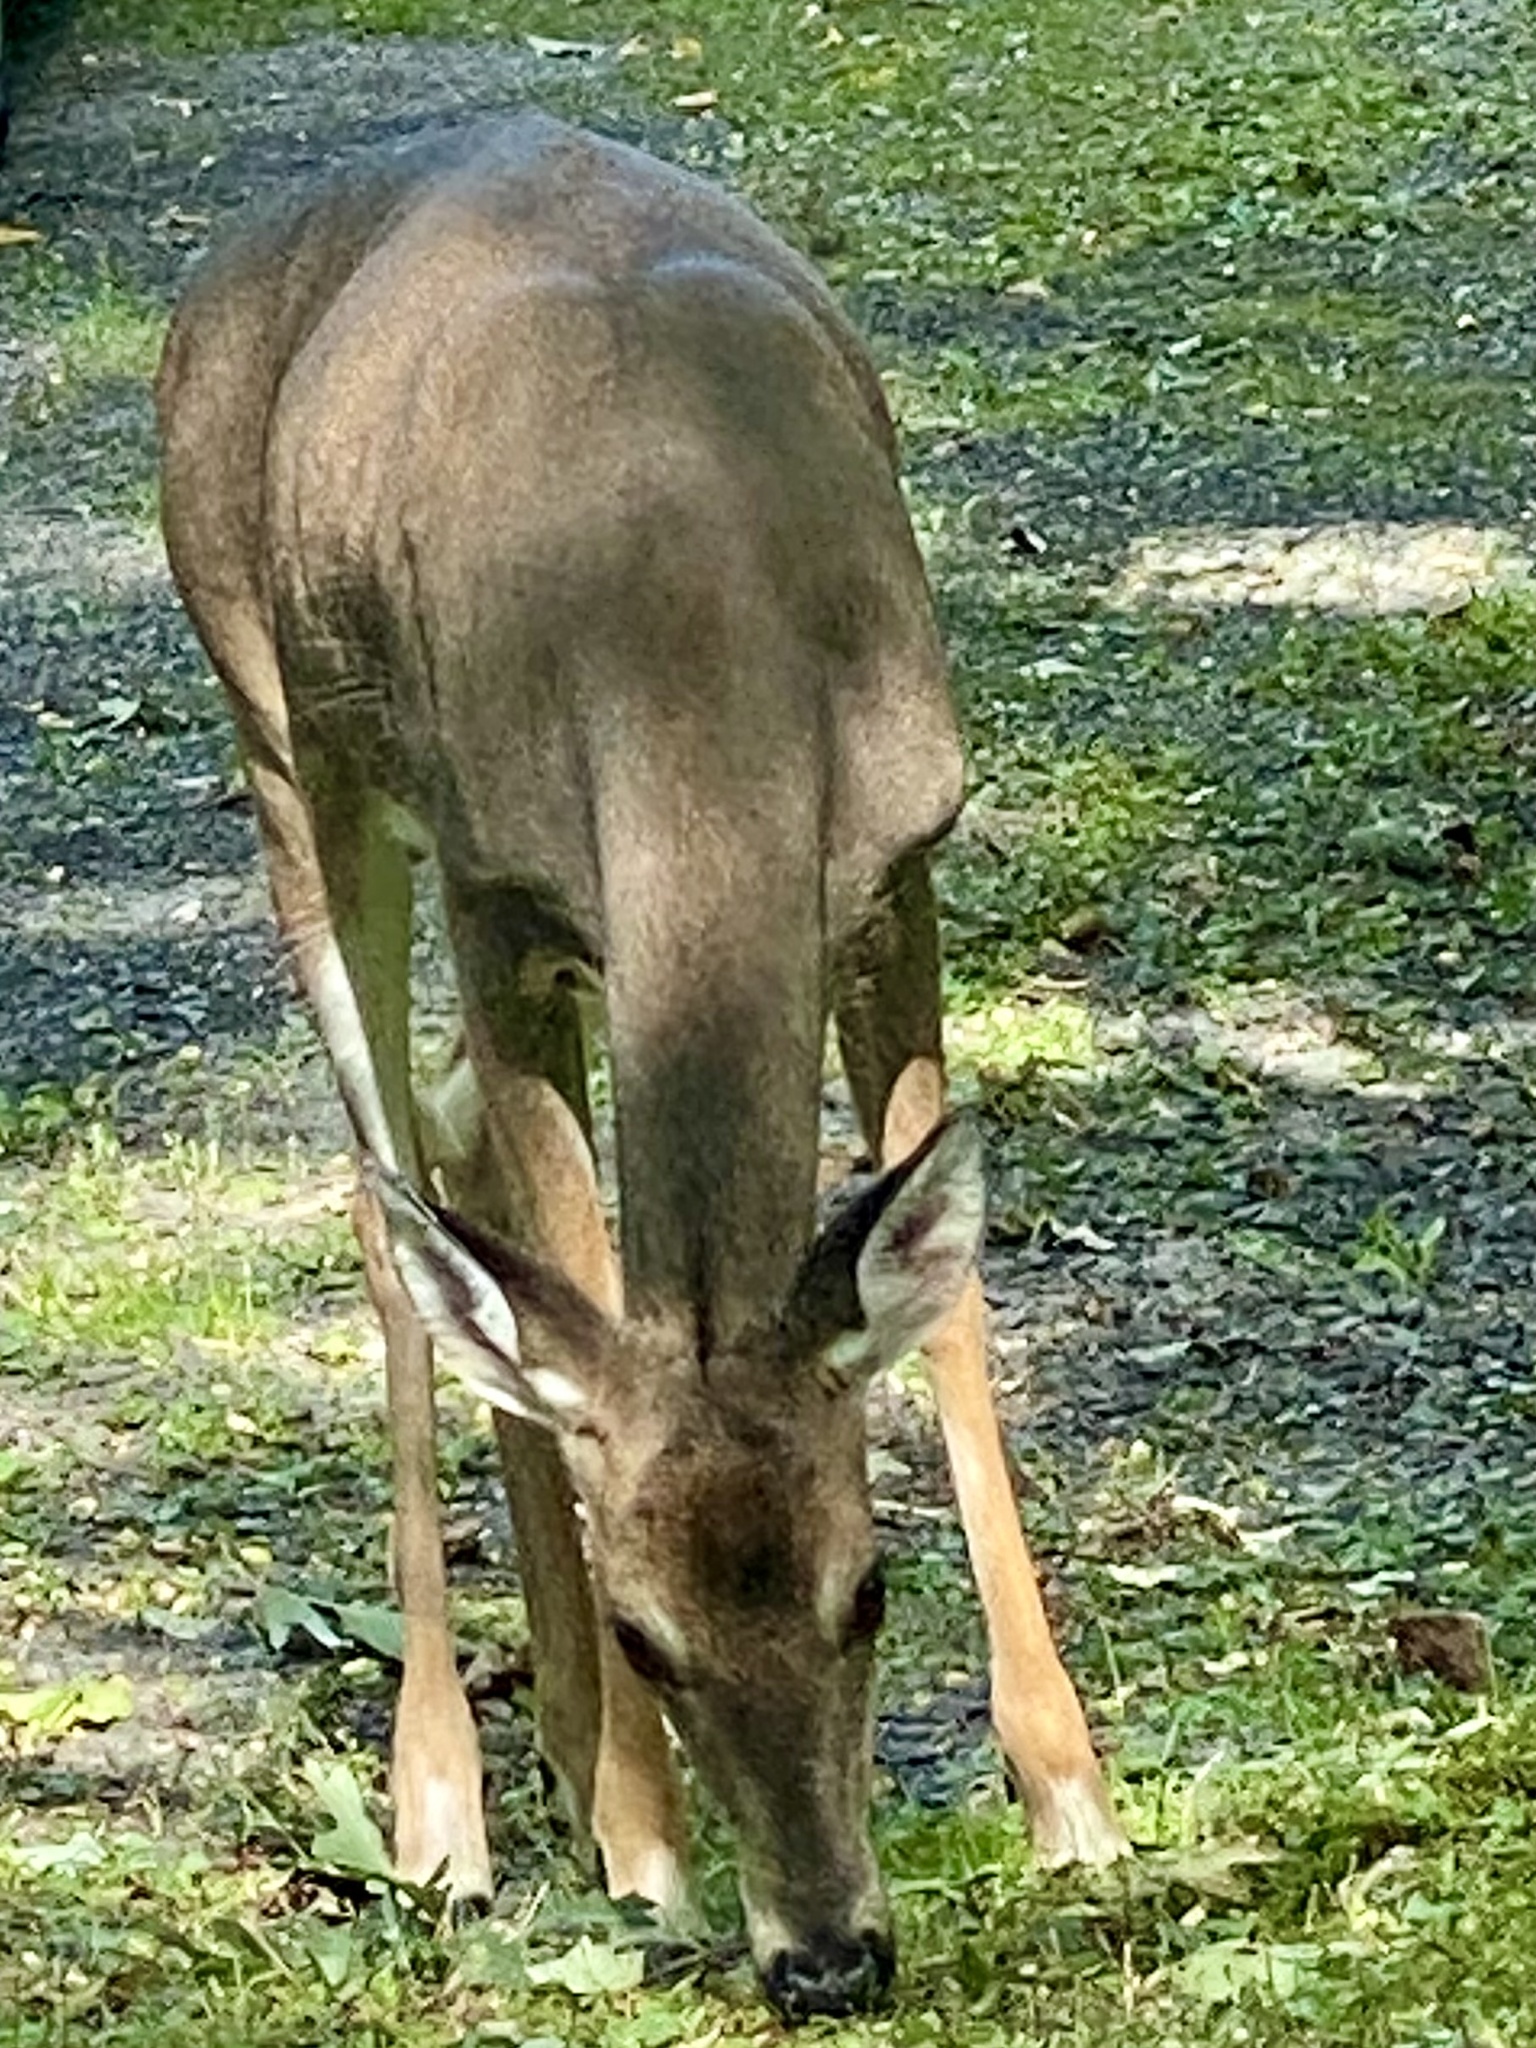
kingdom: Animalia
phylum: Chordata
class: Mammalia
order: Artiodactyla
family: Cervidae
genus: Odocoileus
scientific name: Odocoileus virginianus
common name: White-tailed deer
